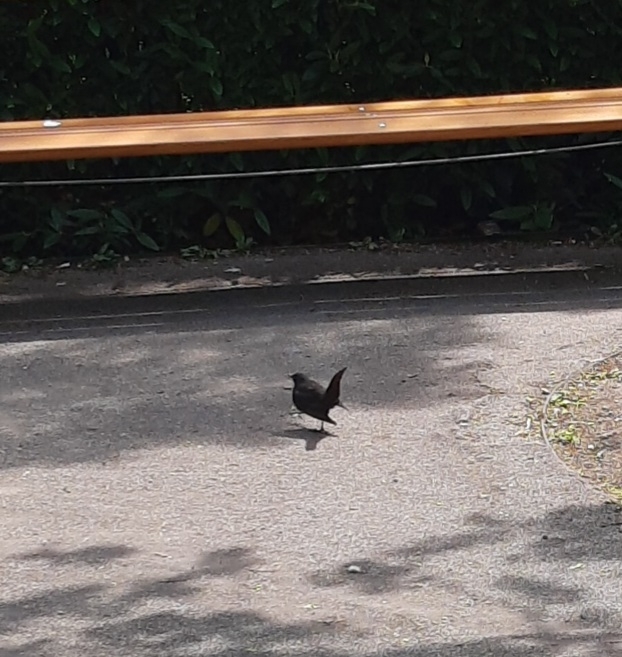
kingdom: Animalia
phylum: Chordata
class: Aves
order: Passeriformes
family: Turdidae
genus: Turdus
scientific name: Turdus merula
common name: Common blackbird
